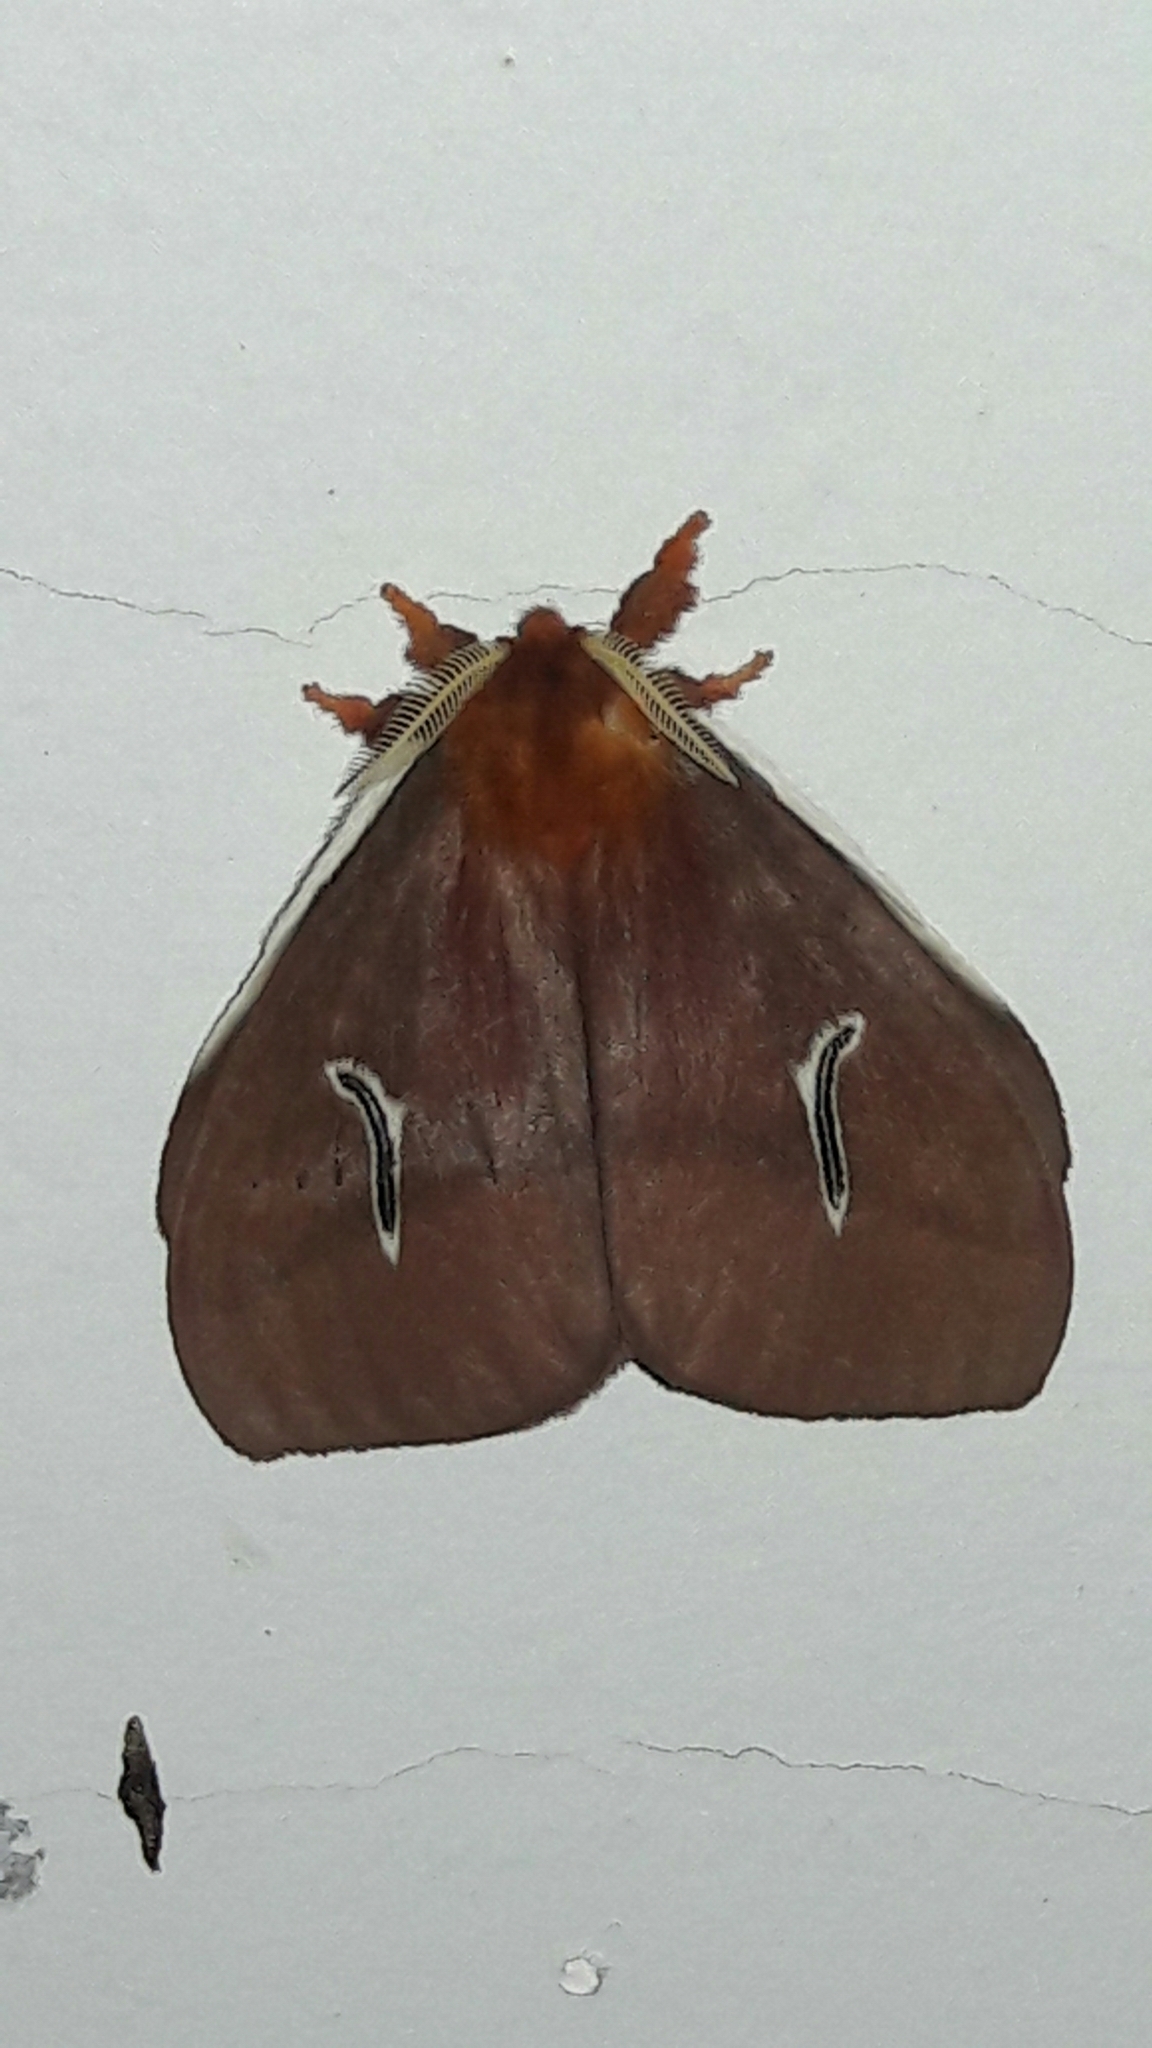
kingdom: Animalia
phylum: Arthropoda
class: Insecta
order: Lepidoptera
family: Saturniidae
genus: Cerodirphia
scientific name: Cerodirphia apunctata
